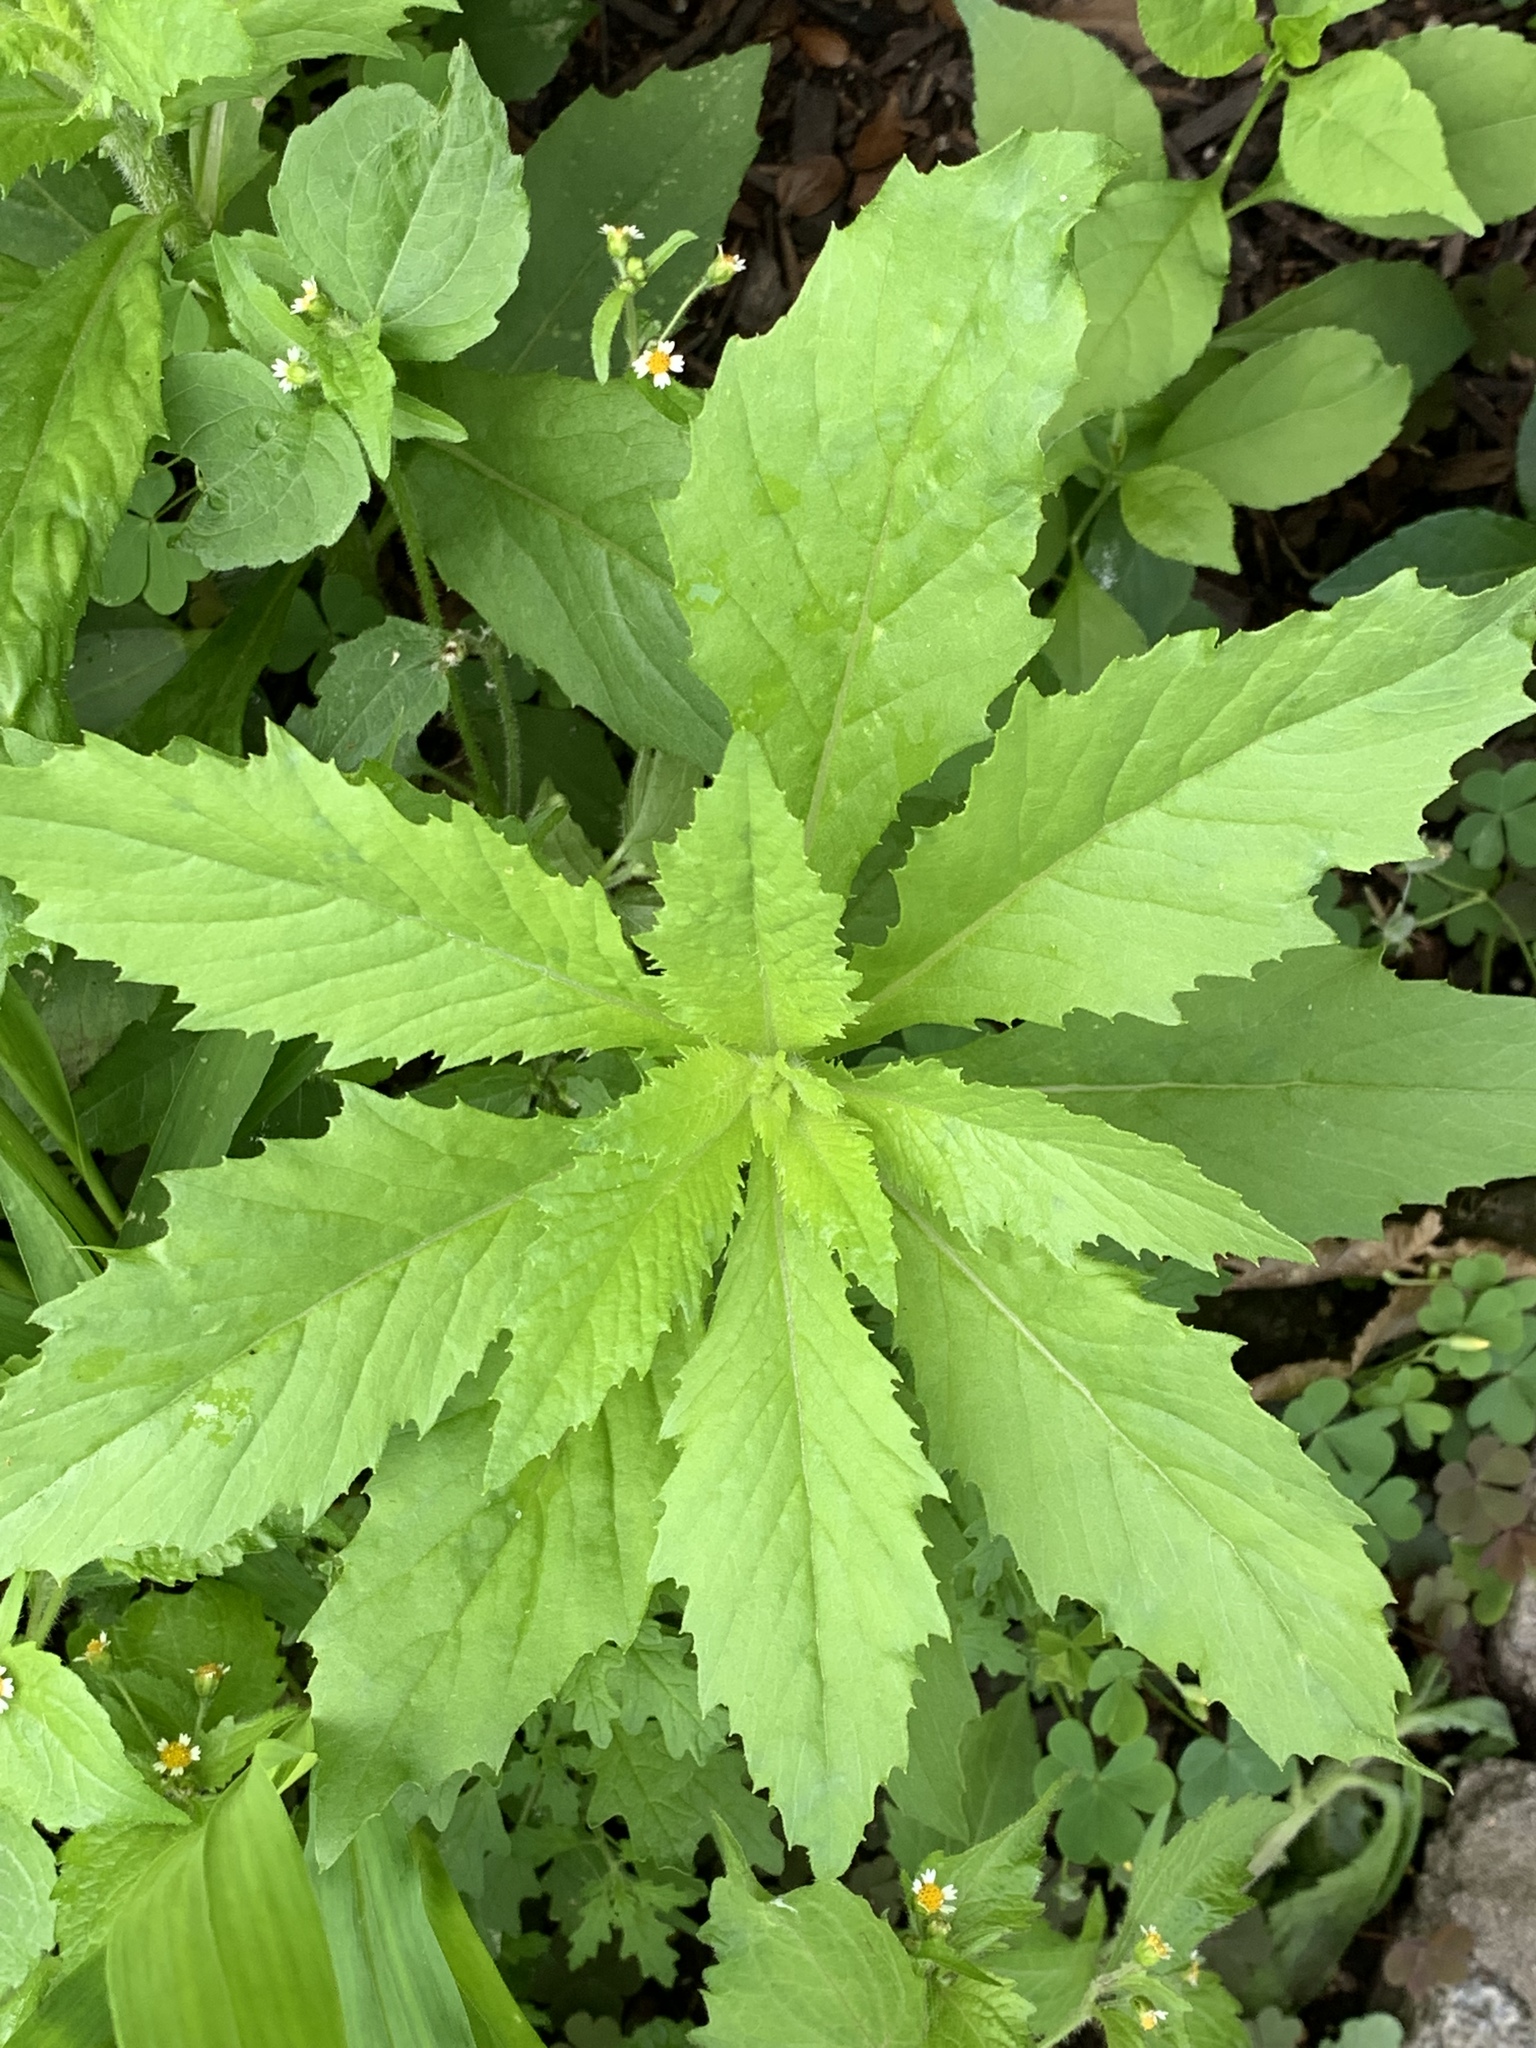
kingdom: Plantae
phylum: Tracheophyta
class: Magnoliopsida
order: Asterales
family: Asteraceae
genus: Erechtites
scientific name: Erechtites hieraciifolius
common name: American burnweed
